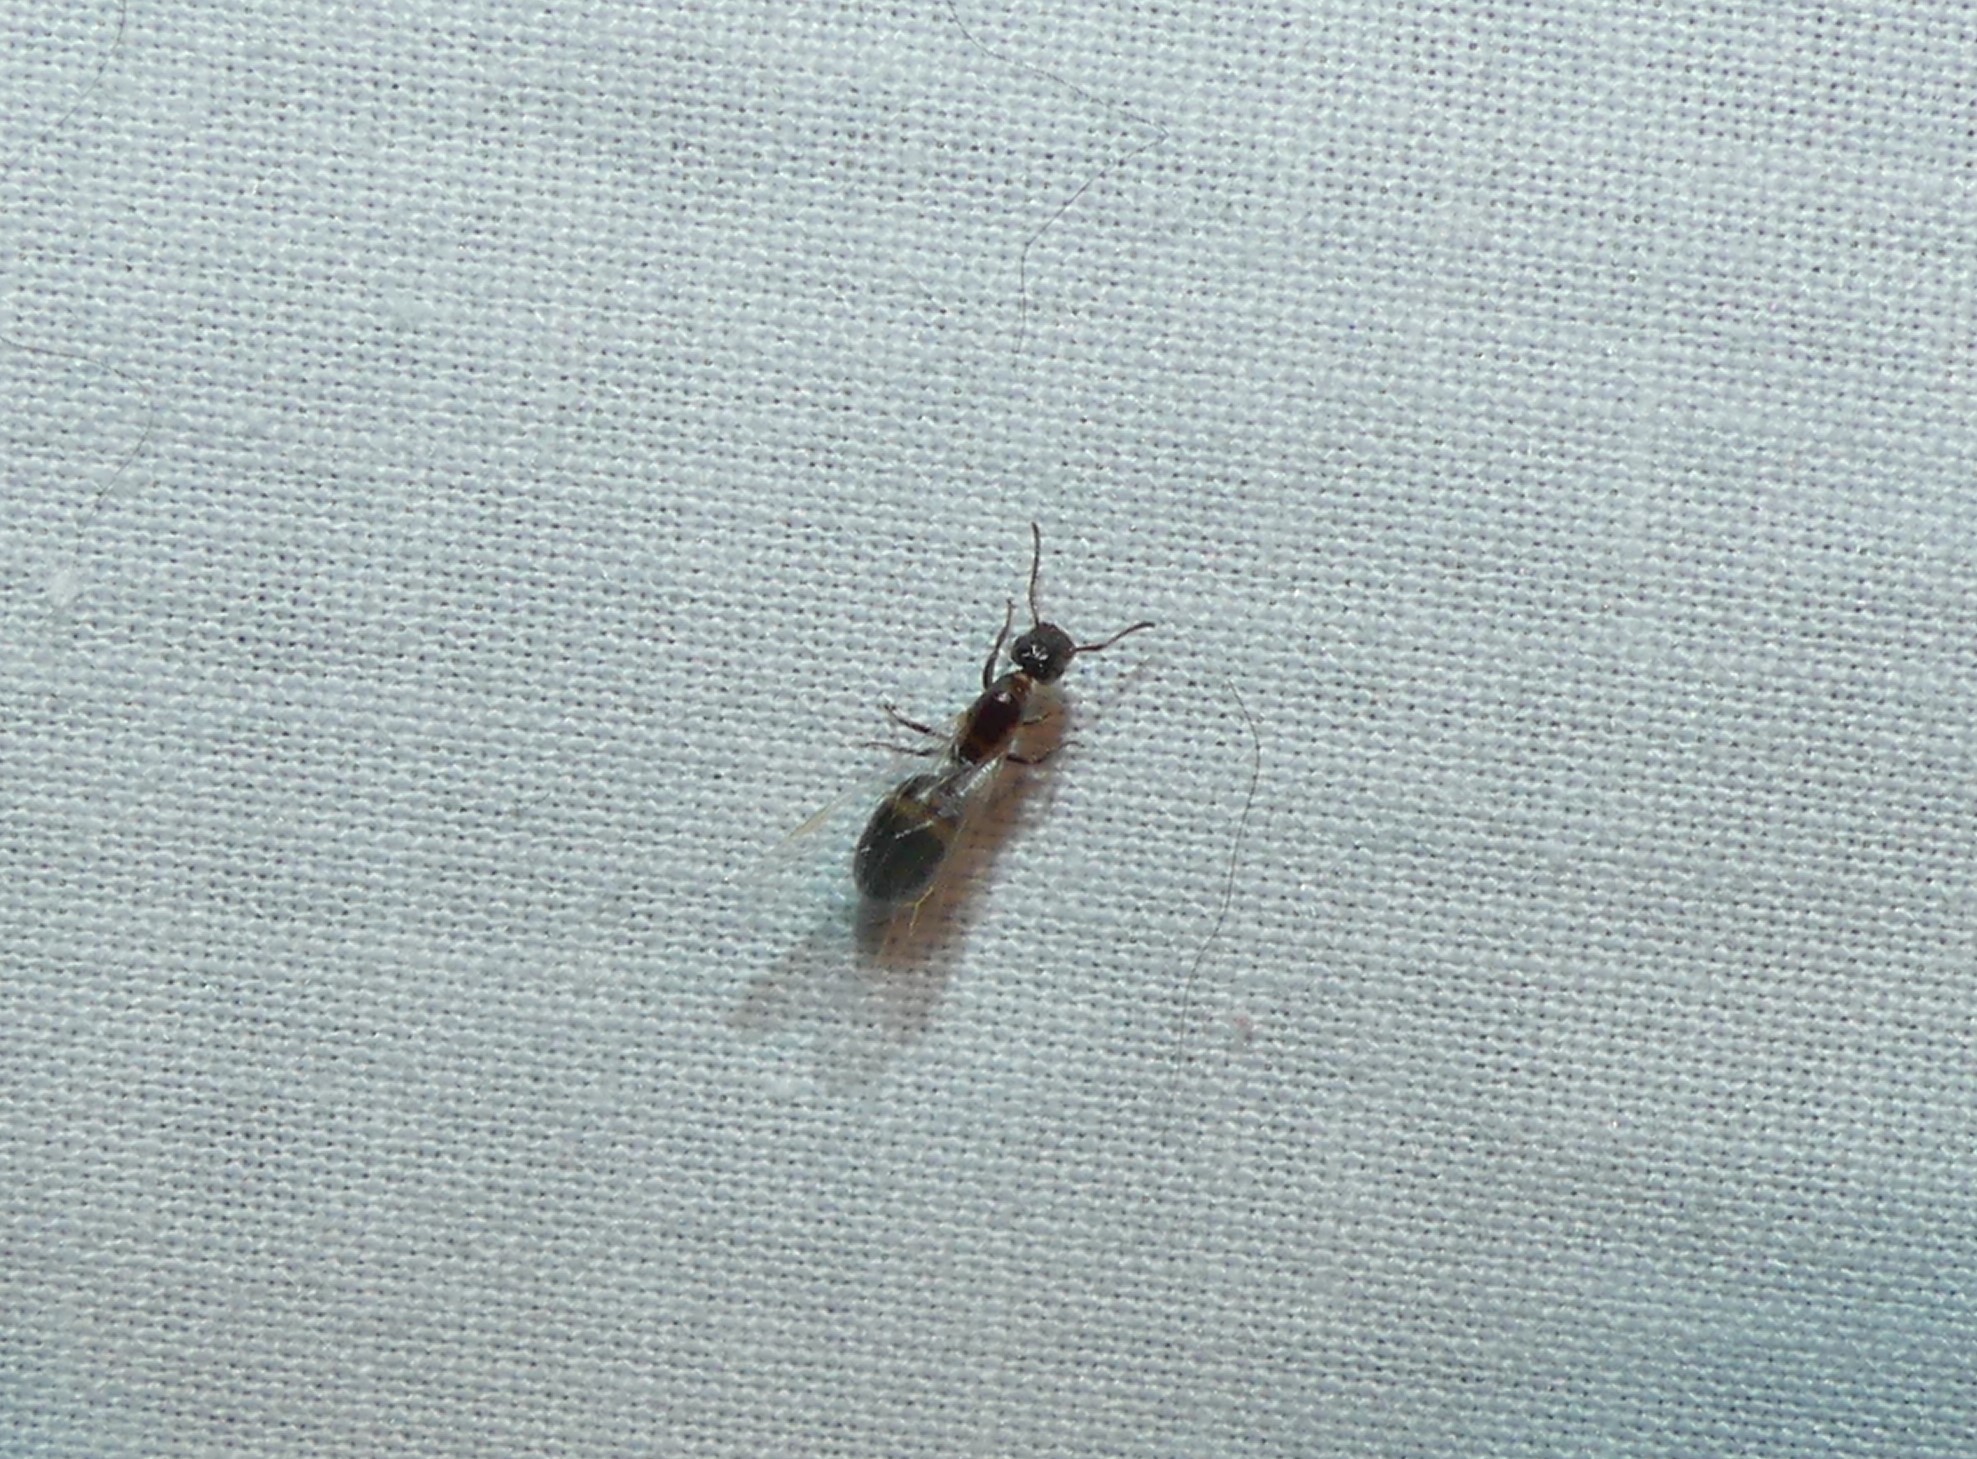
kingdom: Animalia
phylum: Arthropoda
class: Insecta
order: Hymenoptera
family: Formicidae
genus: Colobopsis
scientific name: Colobopsis
